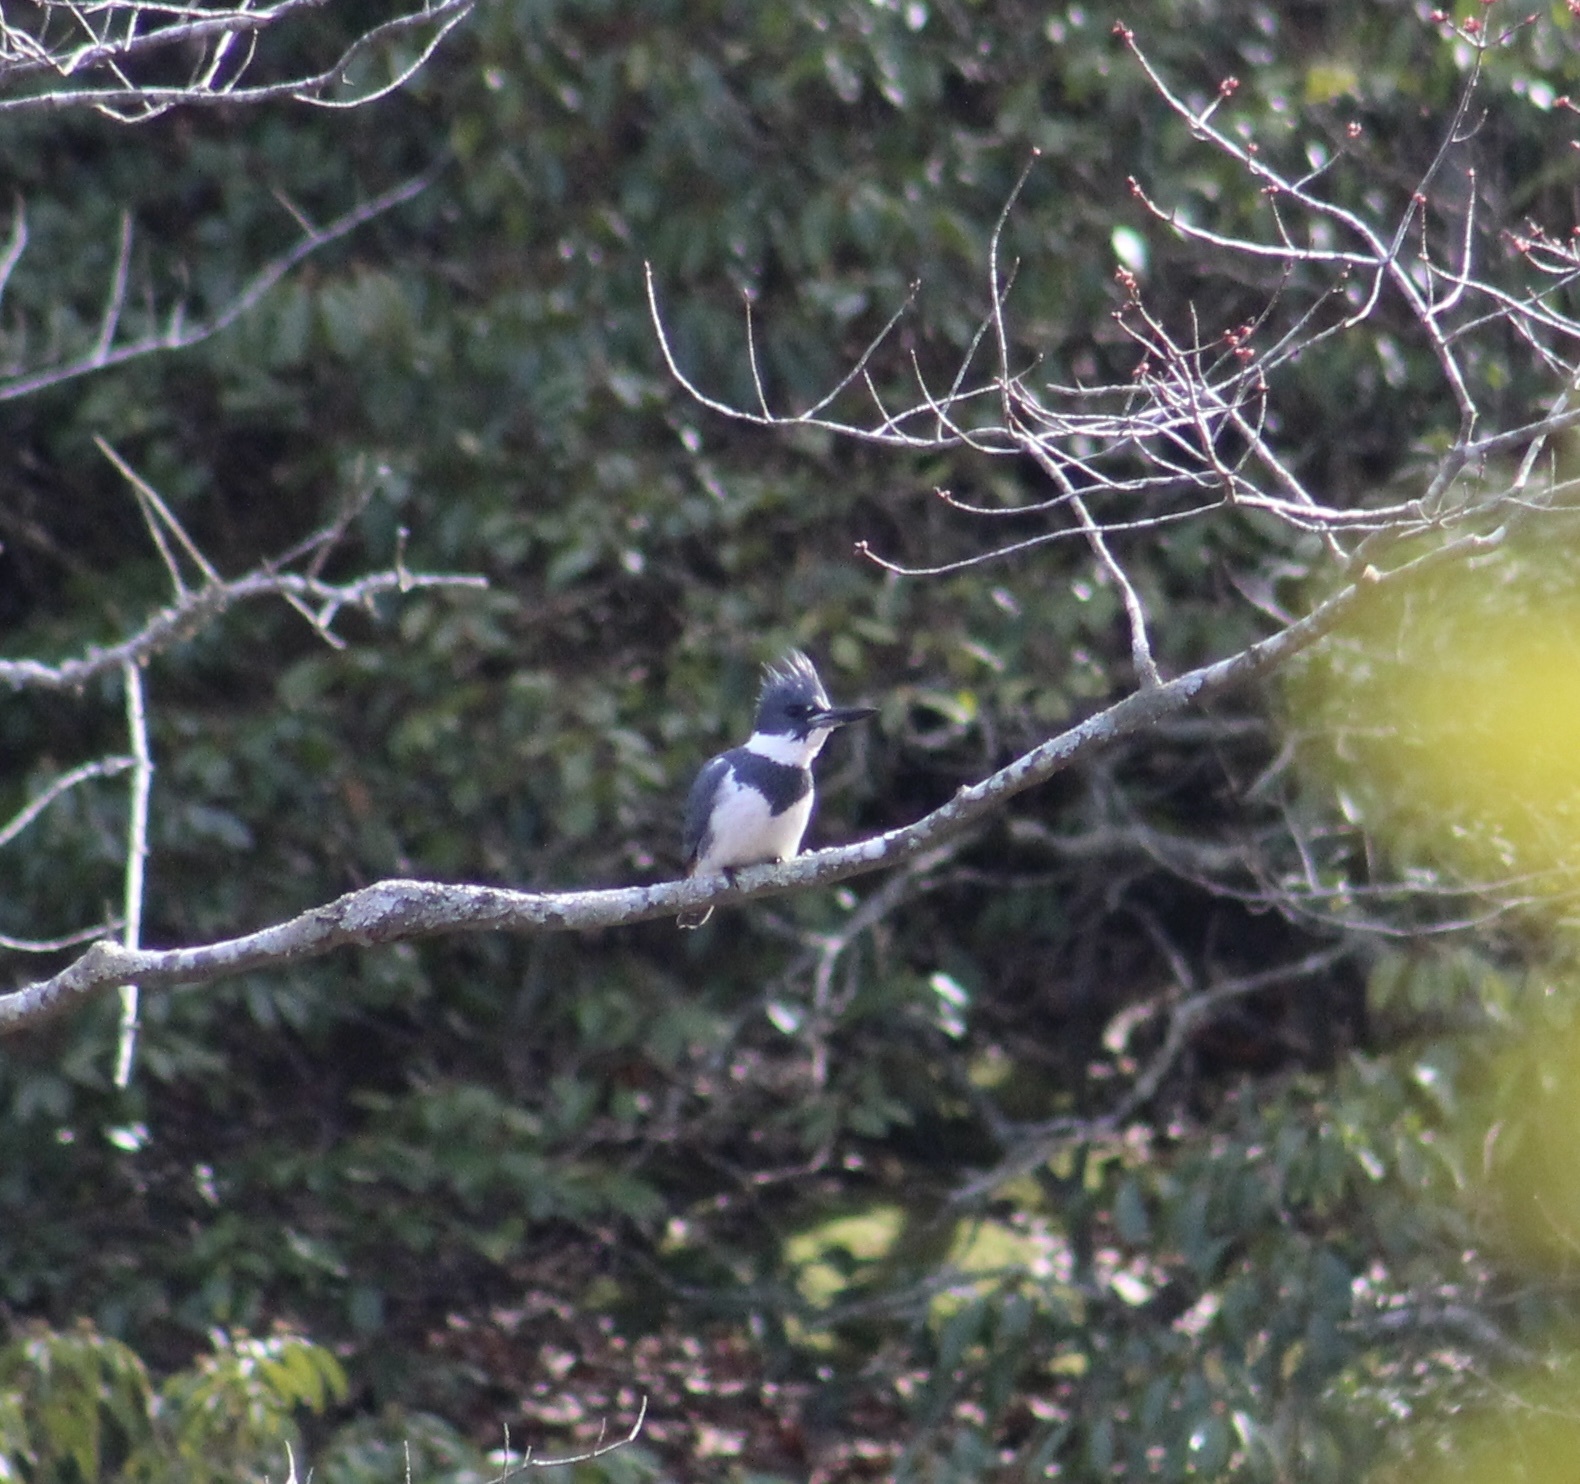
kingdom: Animalia
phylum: Chordata
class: Aves
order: Coraciiformes
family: Alcedinidae
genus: Megaceryle
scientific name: Megaceryle alcyon
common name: Belted kingfisher
